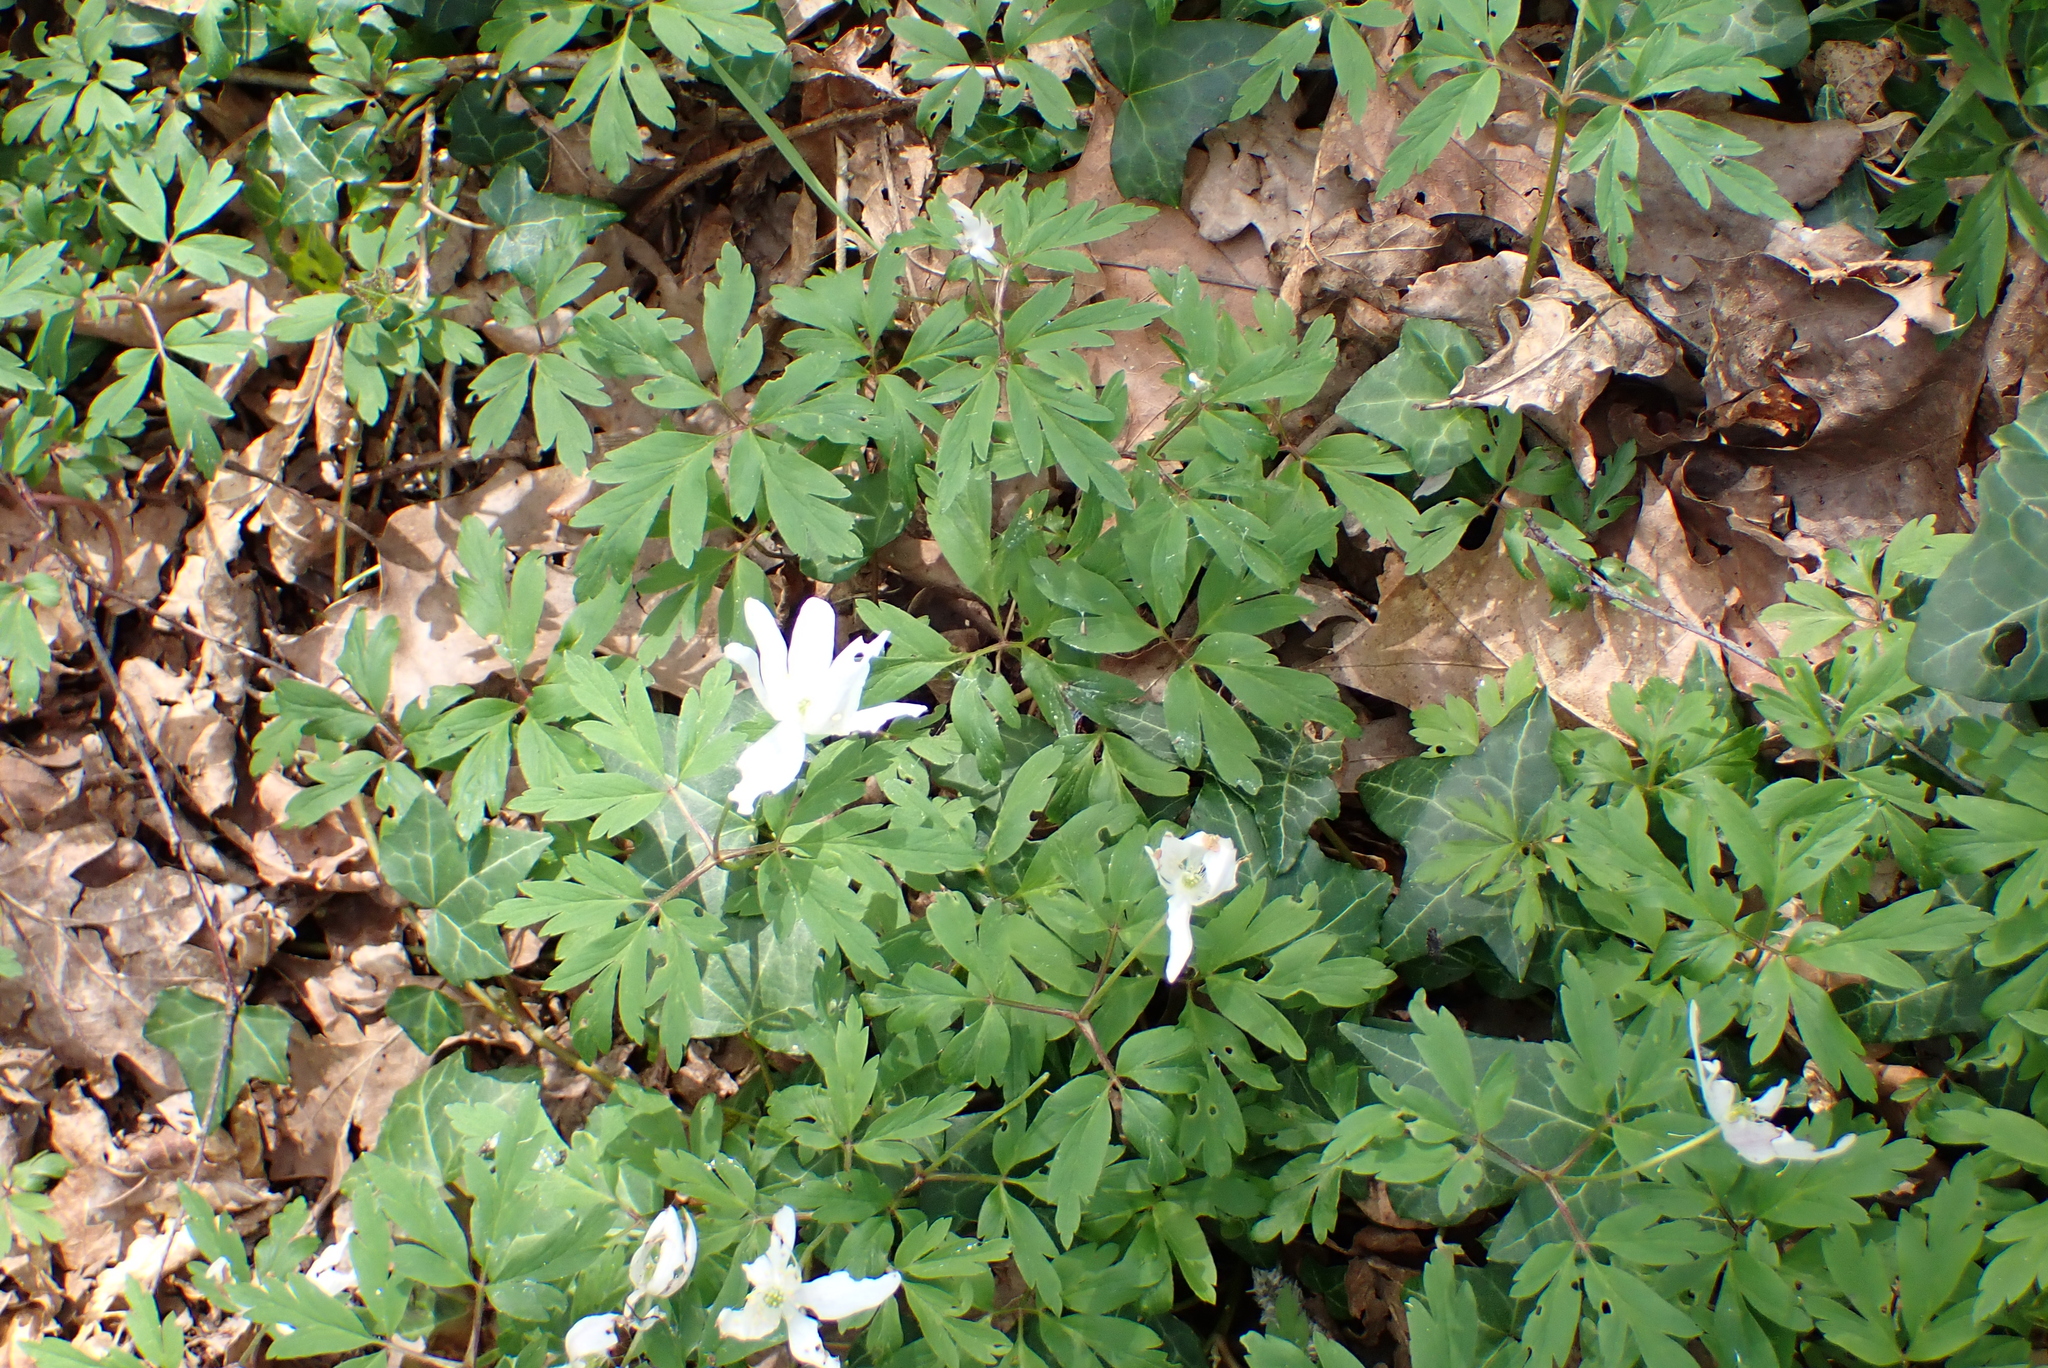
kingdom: Plantae
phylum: Tracheophyta
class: Magnoliopsida
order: Ranunculales
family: Ranunculaceae
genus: Anemone
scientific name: Anemone nemorosa
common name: Wood anemone
